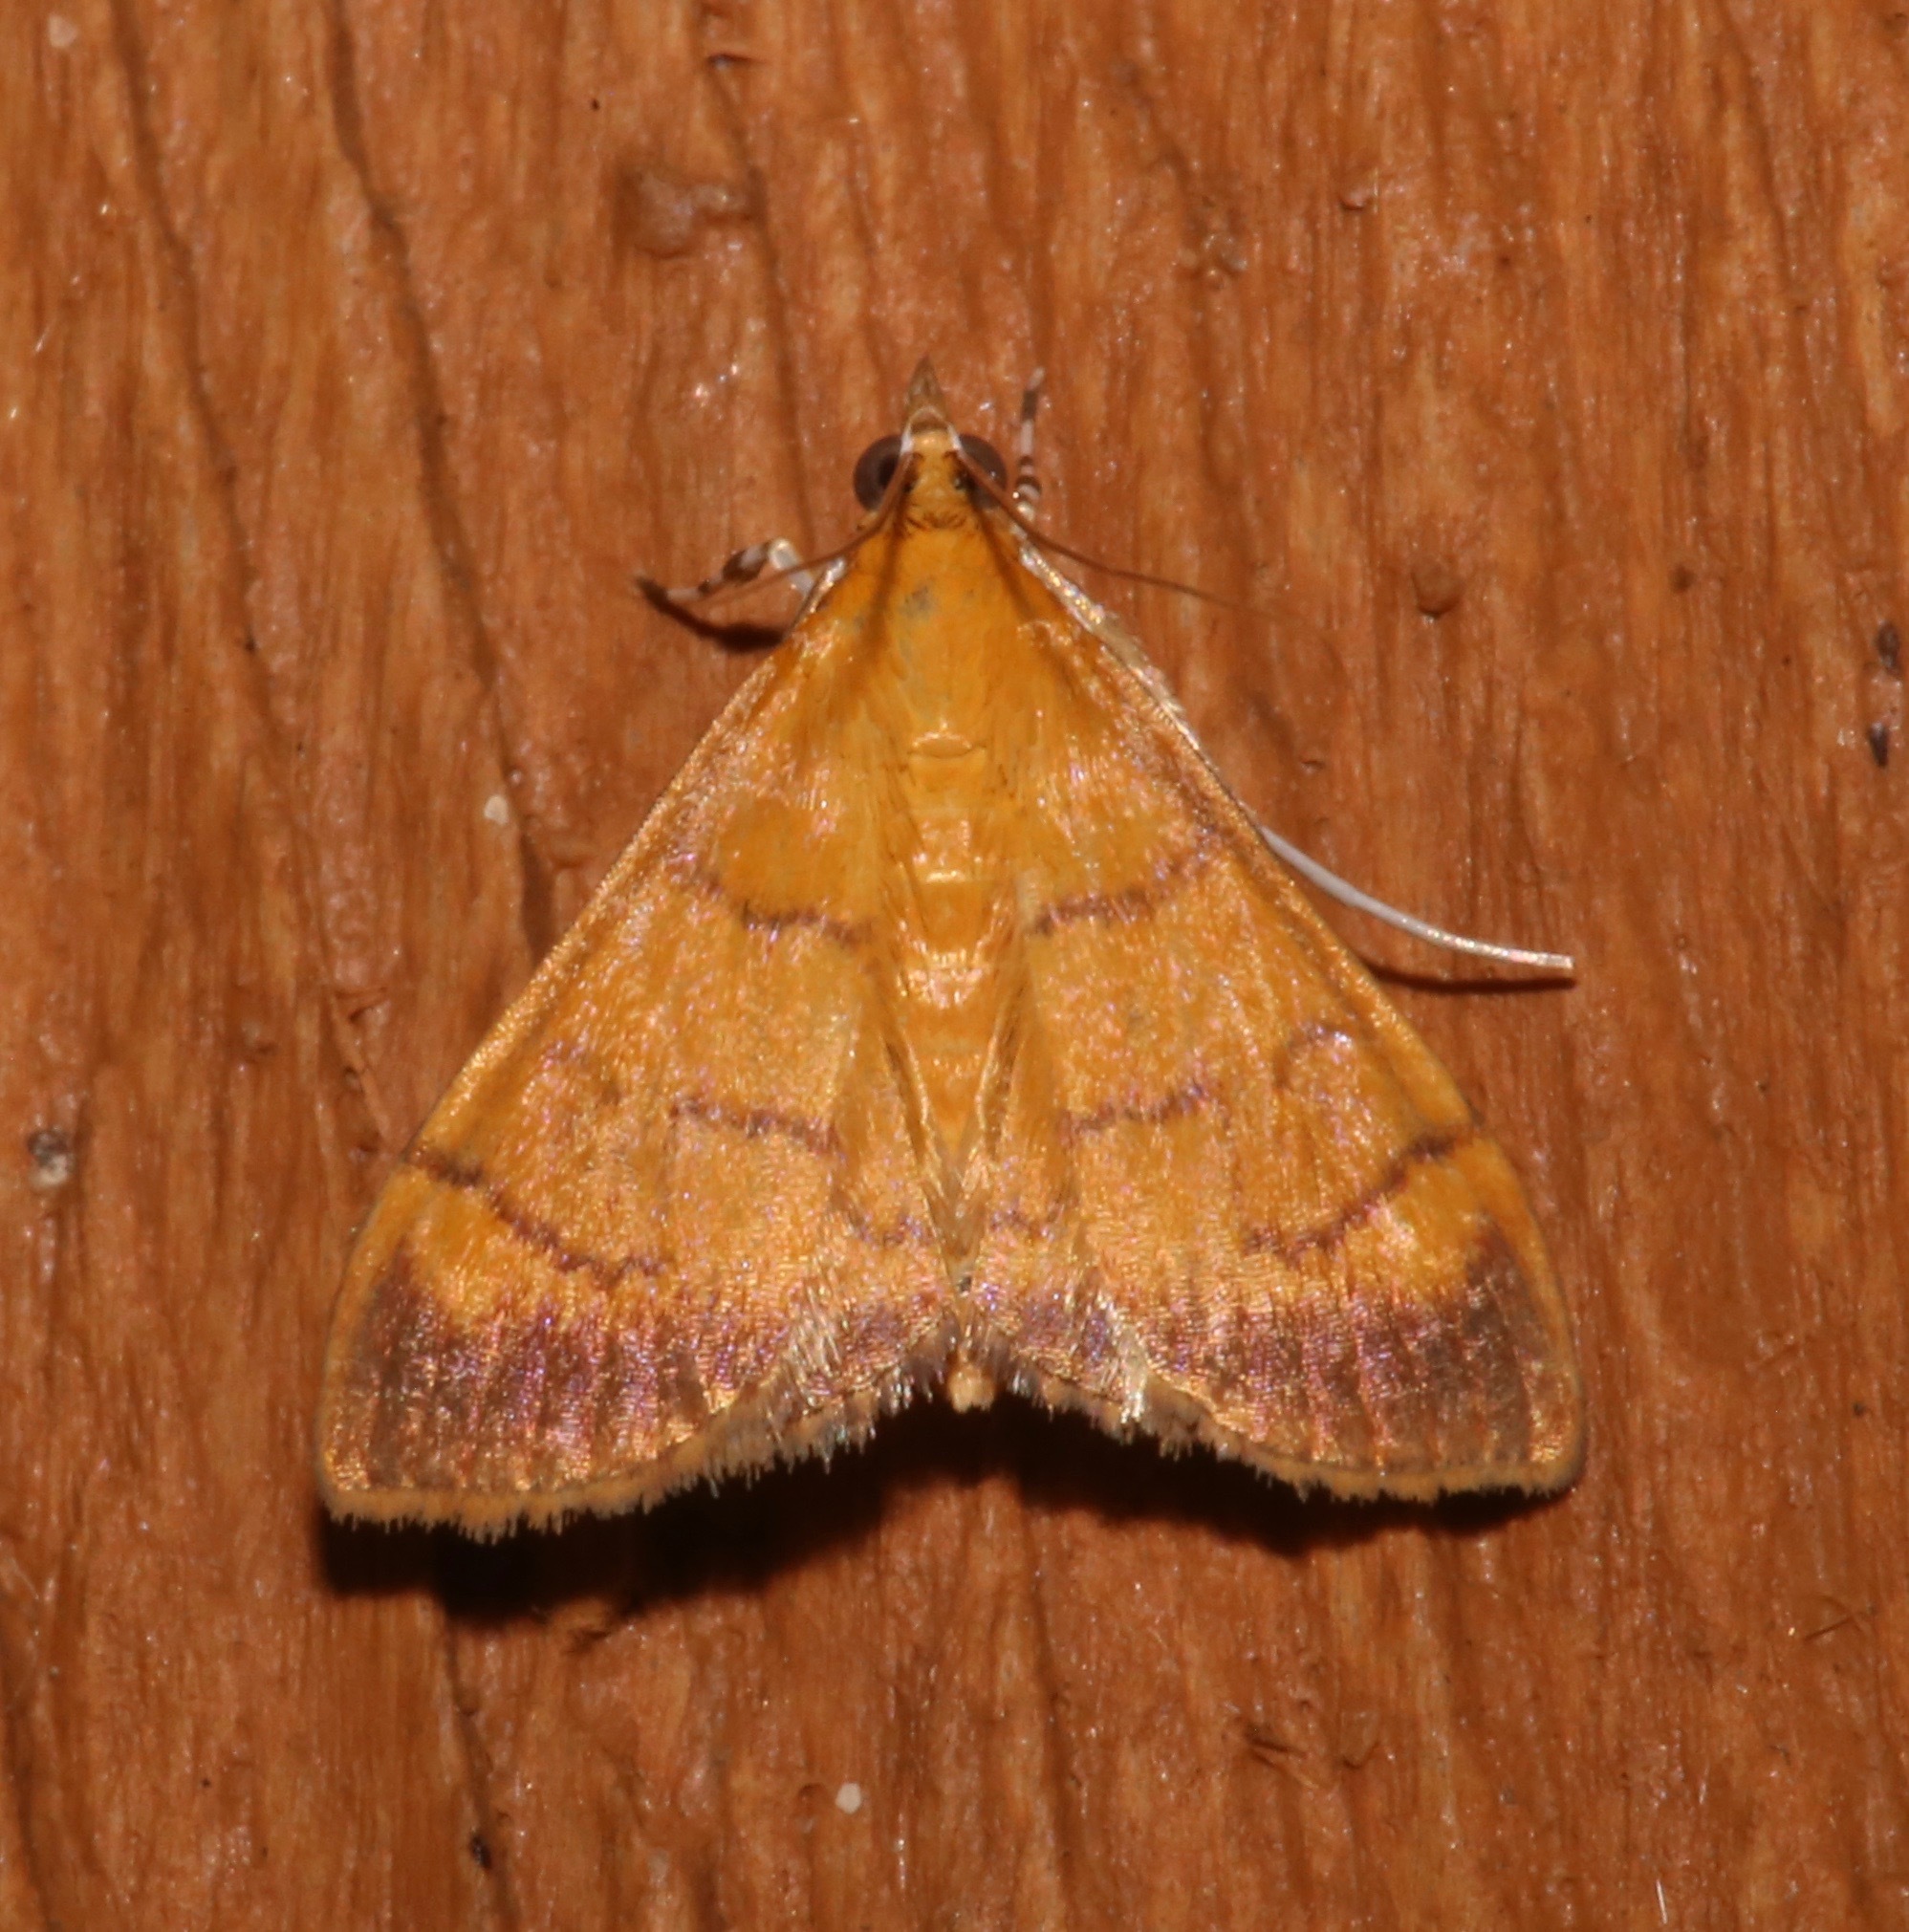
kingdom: Animalia
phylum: Arthropoda
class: Insecta
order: Lepidoptera
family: Crambidae
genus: Pyrausta
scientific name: Pyrausta insignitalis
